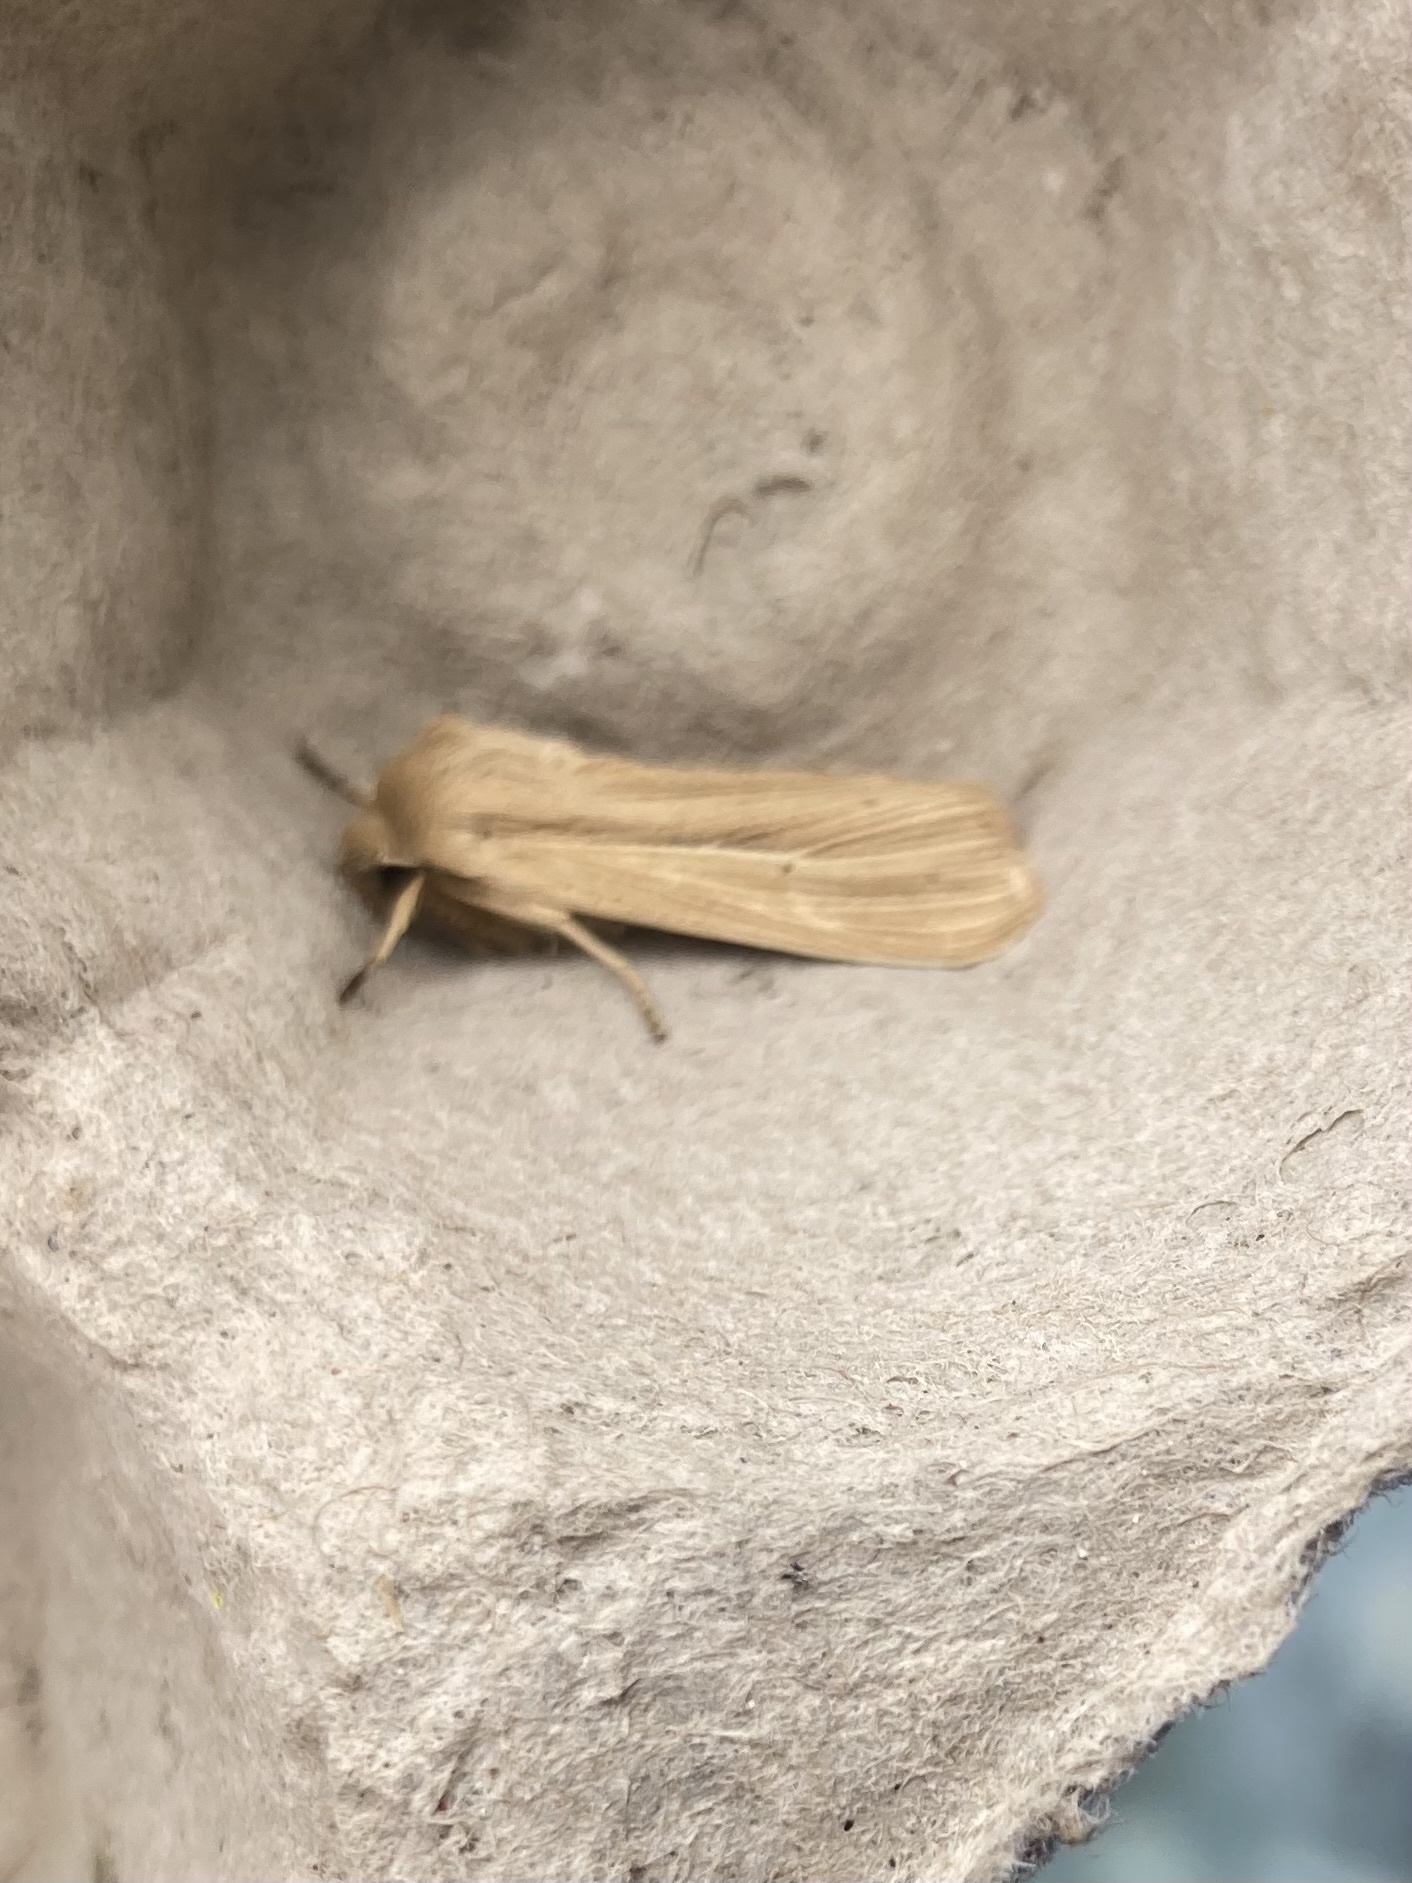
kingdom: Animalia
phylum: Arthropoda
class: Insecta
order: Lepidoptera
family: Noctuidae
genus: Mythimna
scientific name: Mythimna pallens
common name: Common wainscot
